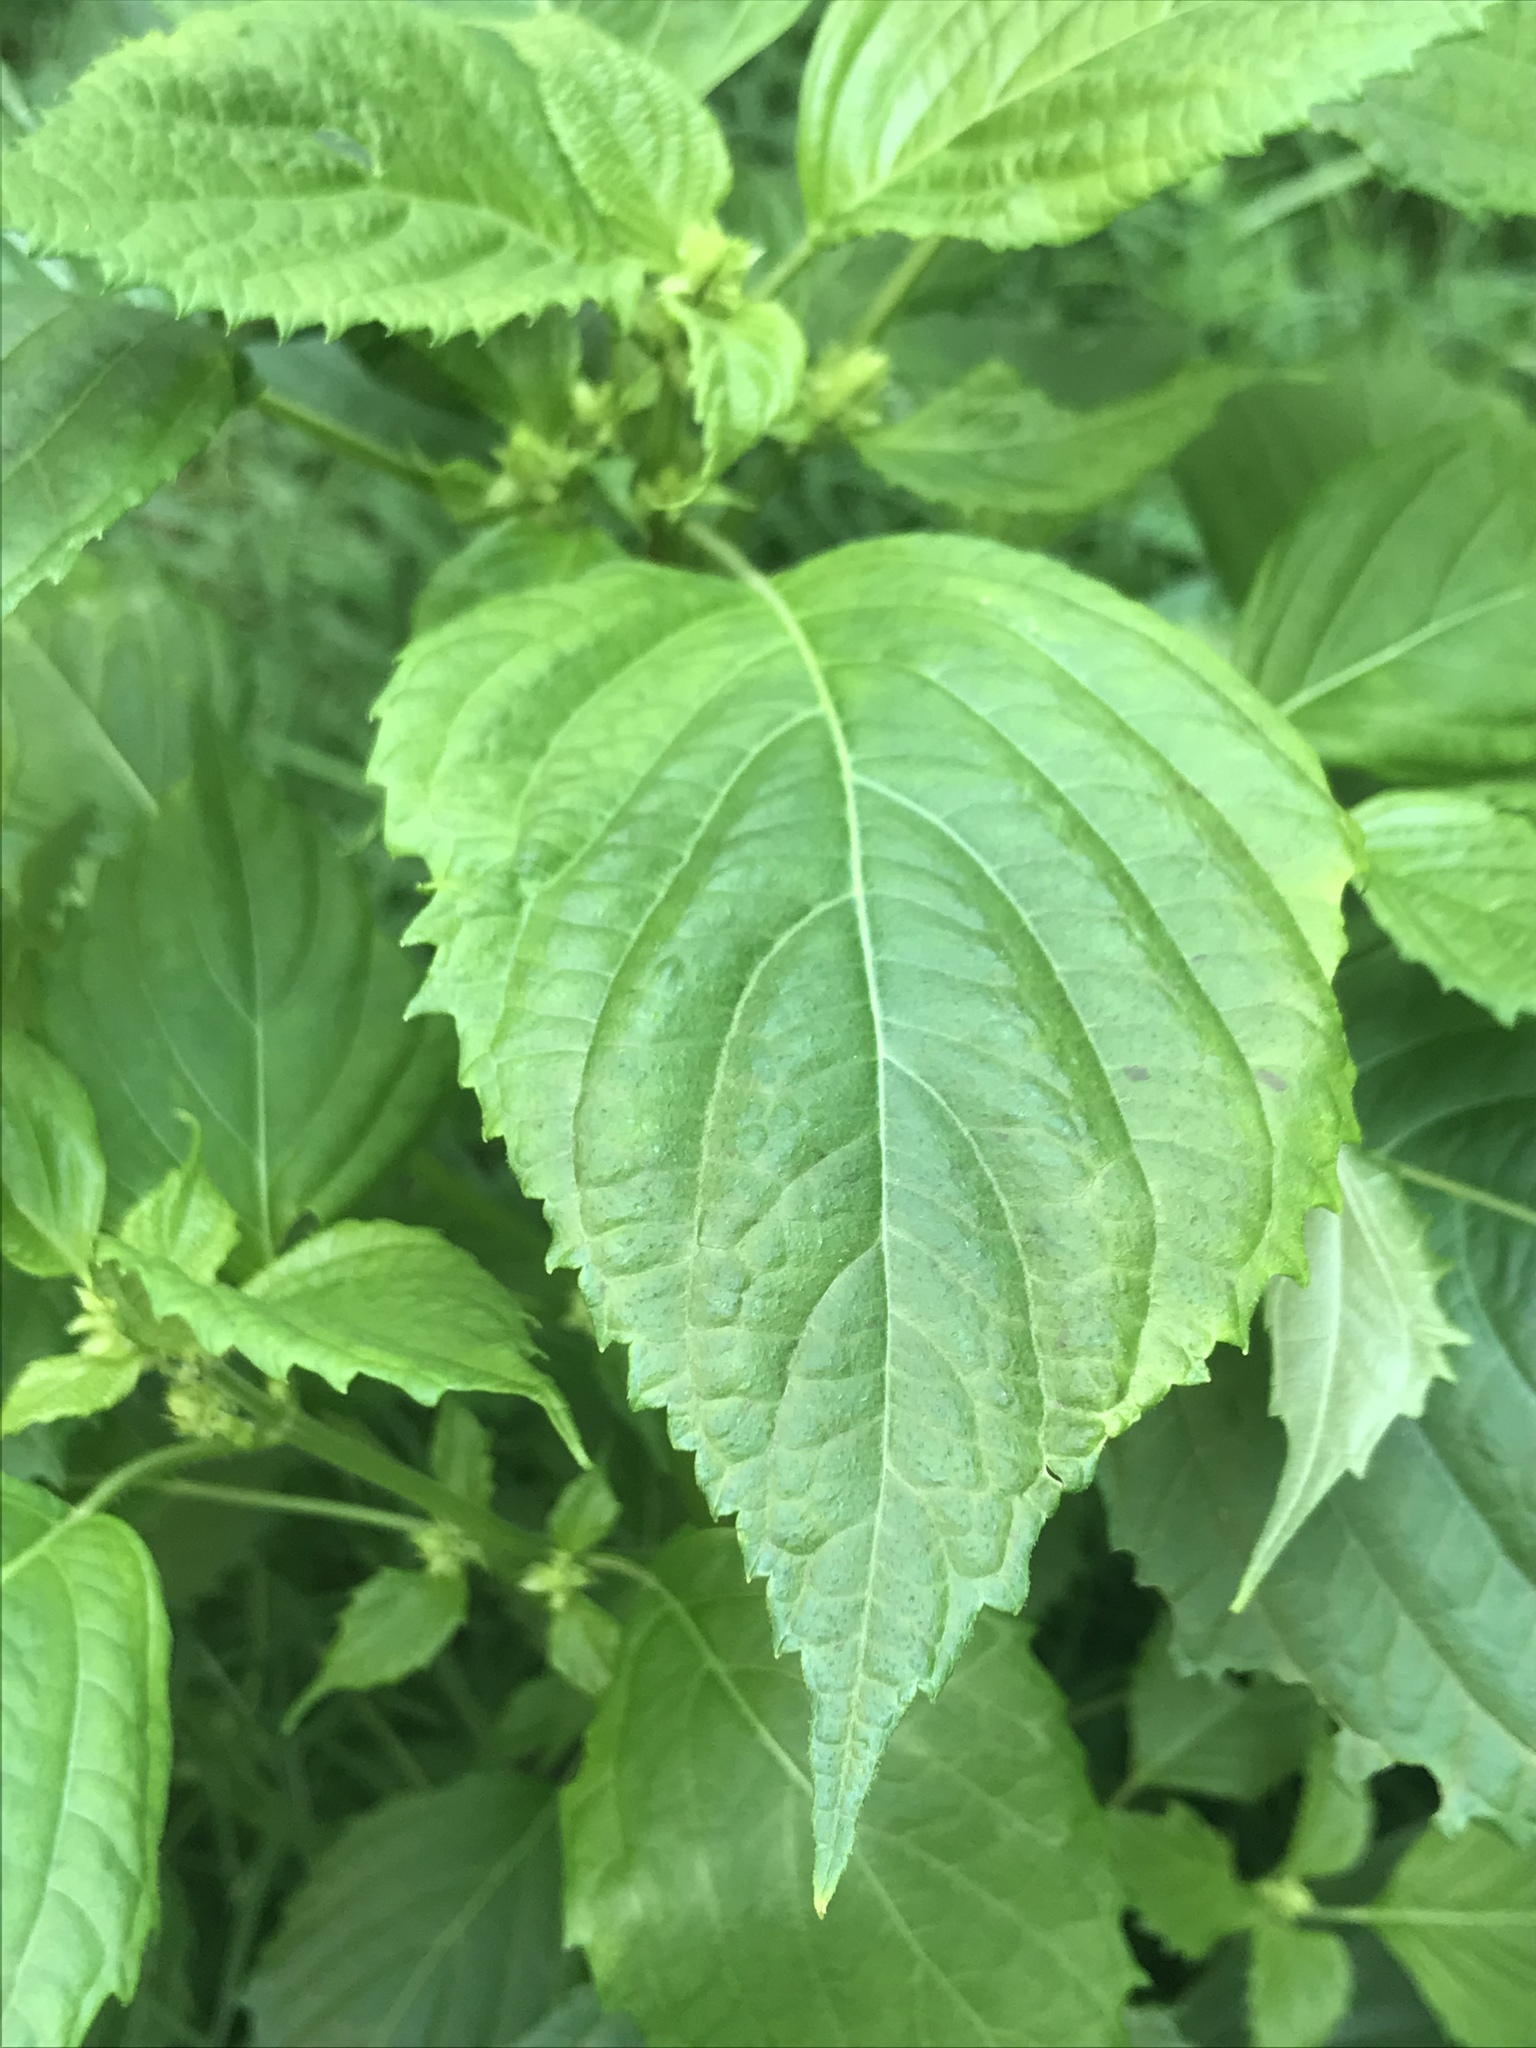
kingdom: Plantae
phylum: Tracheophyta
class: Magnoliopsida
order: Lamiales
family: Lamiaceae
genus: Perilla
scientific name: Perilla frutescens
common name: Perilla
